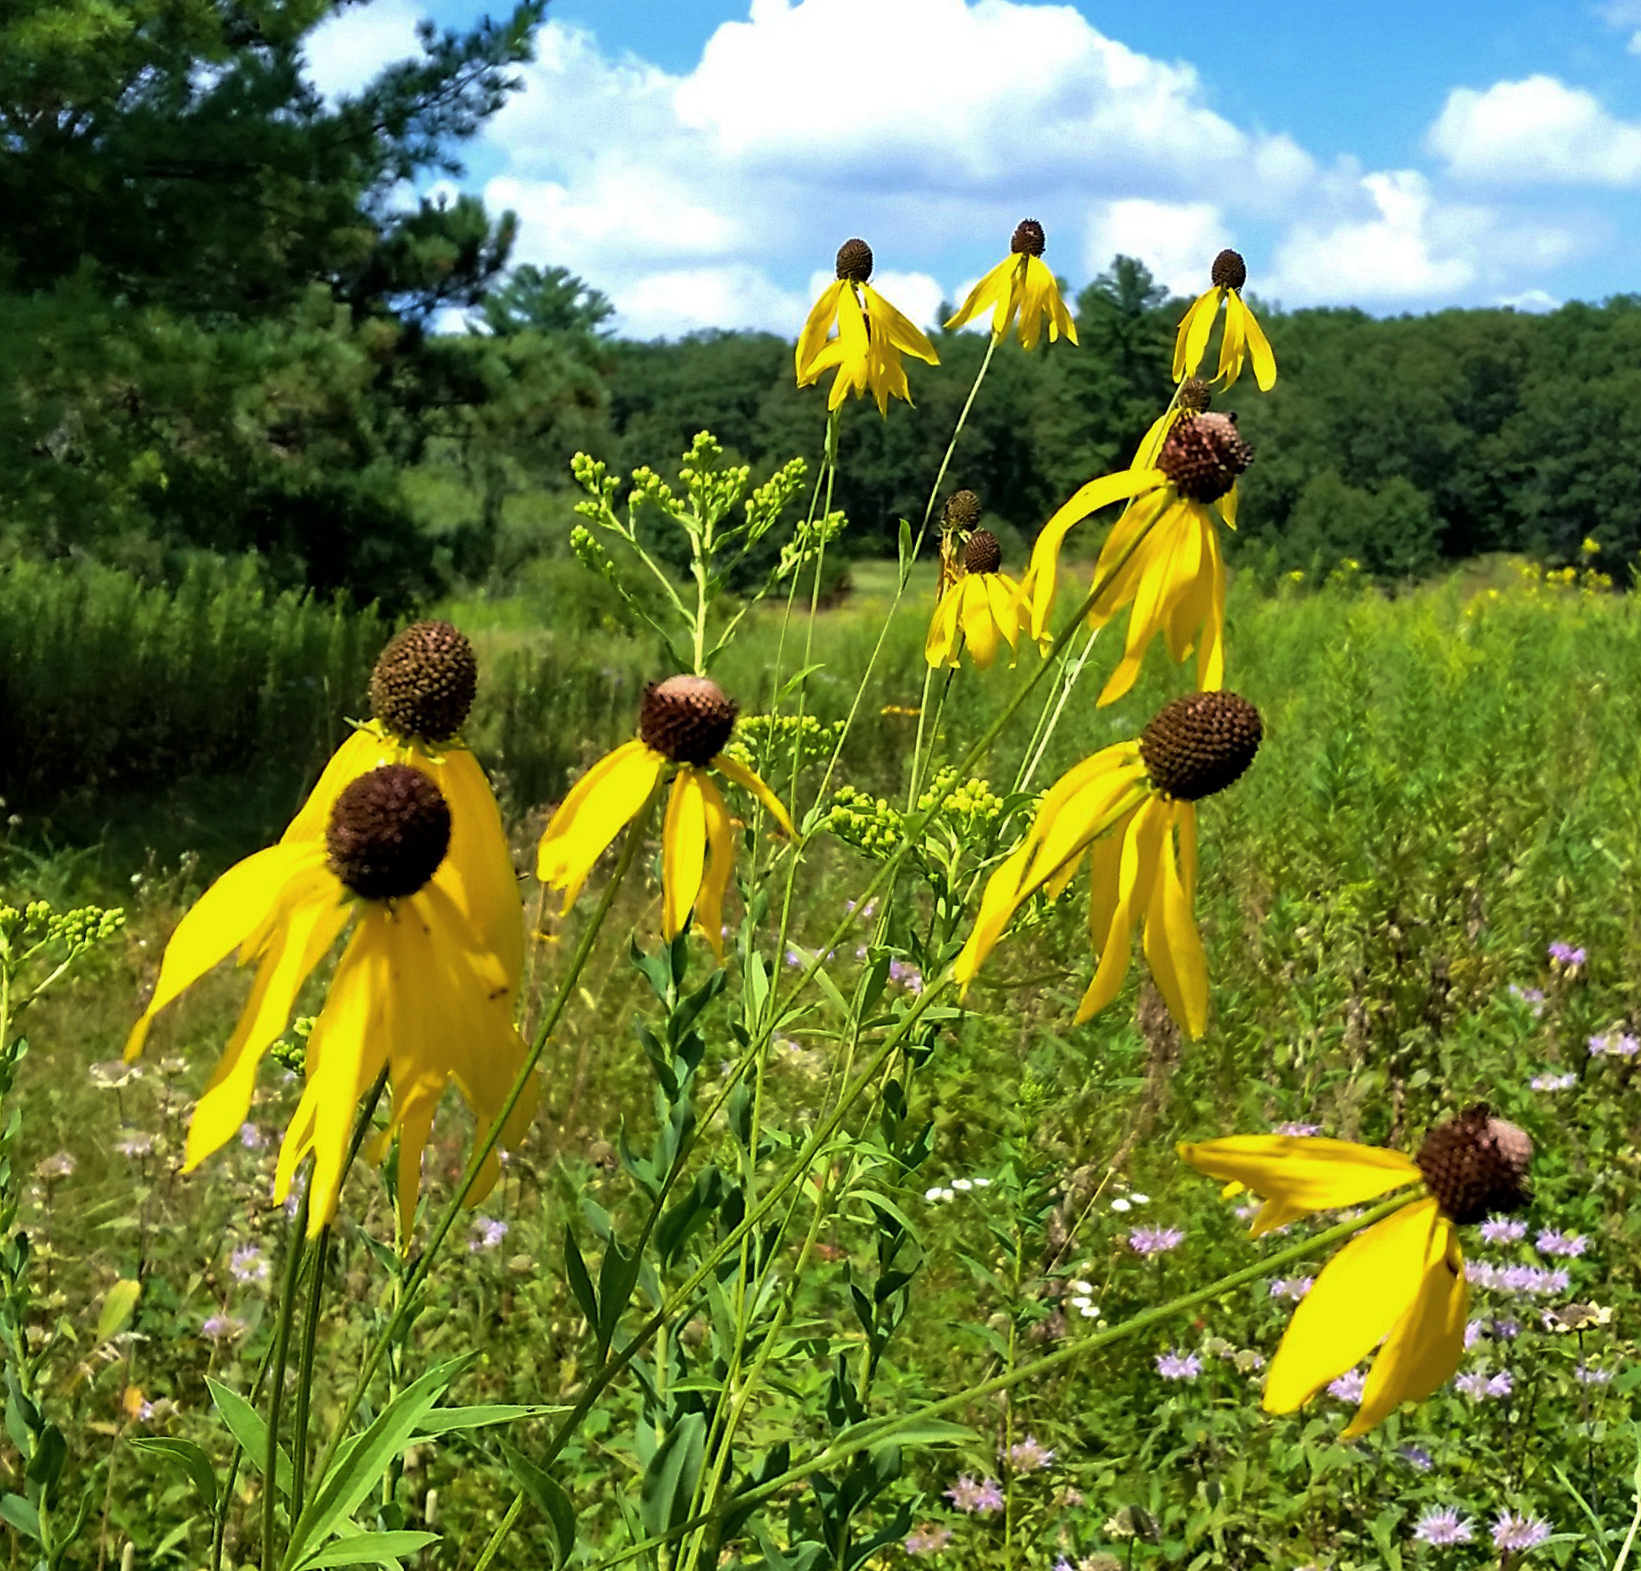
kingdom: Plantae
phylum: Tracheophyta
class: Magnoliopsida
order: Asterales
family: Asteraceae
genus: Ratibida
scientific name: Ratibida pinnata
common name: Drooping prairie-coneflower
